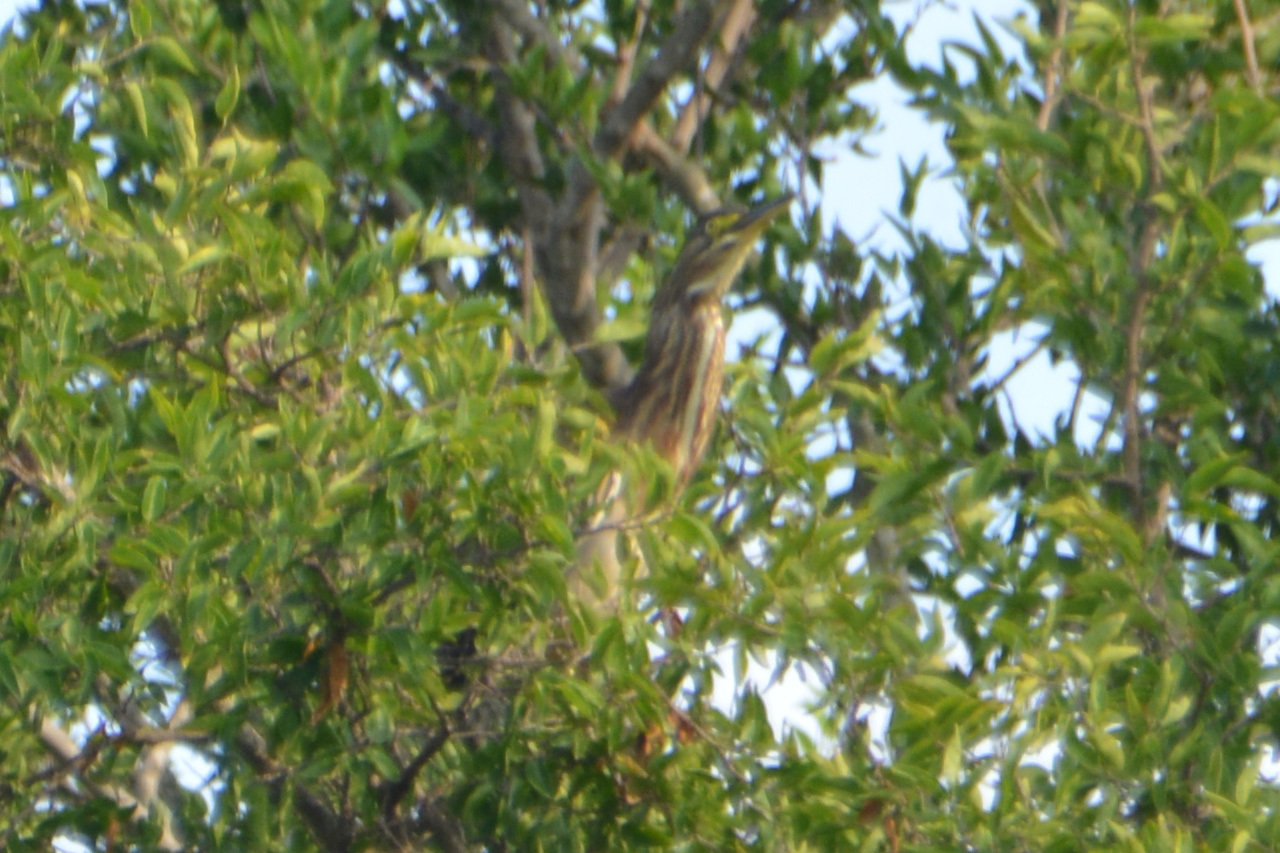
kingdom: Animalia
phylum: Chordata
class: Aves
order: Pelecaniformes
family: Ardeidae
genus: Butorides
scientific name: Butorides striata
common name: Striated heron
